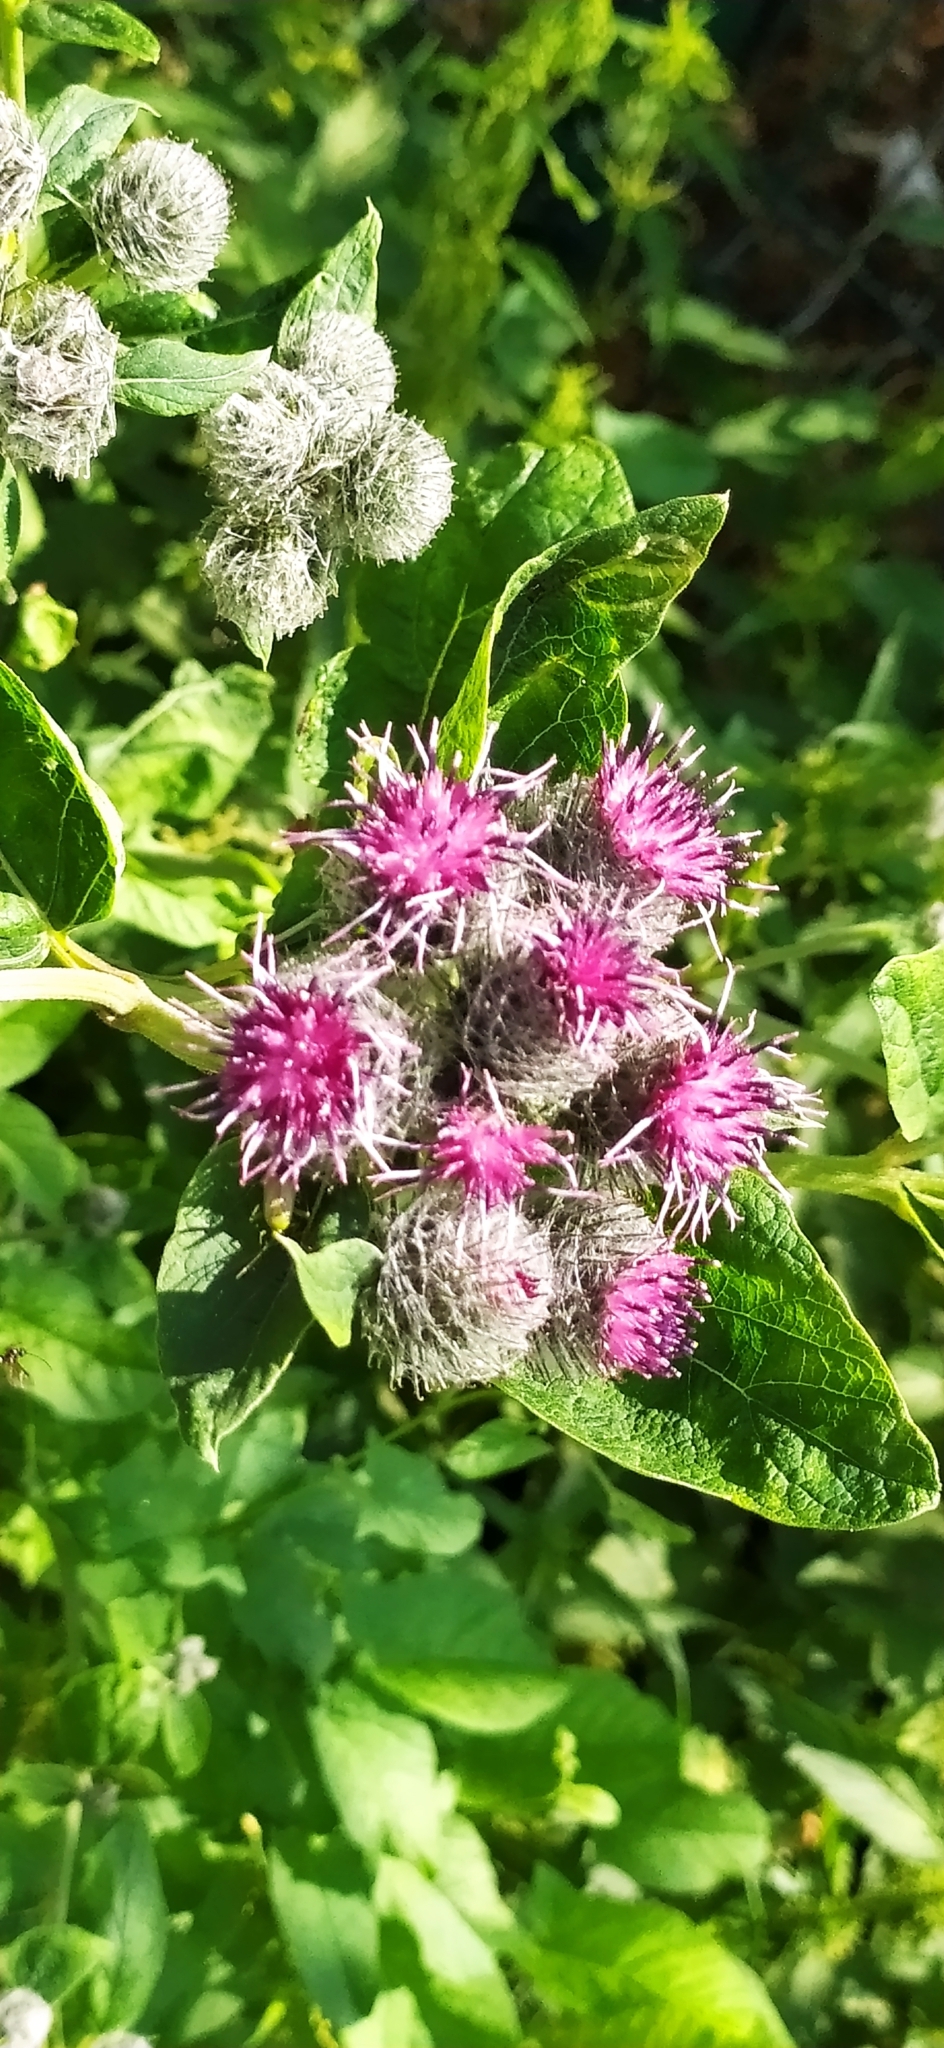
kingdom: Plantae
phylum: Tracheophyta
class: Magnoliopsida
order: Asterales
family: Asteraceae
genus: Arctium
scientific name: Arctium tomentosum
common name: Woolly burdock
